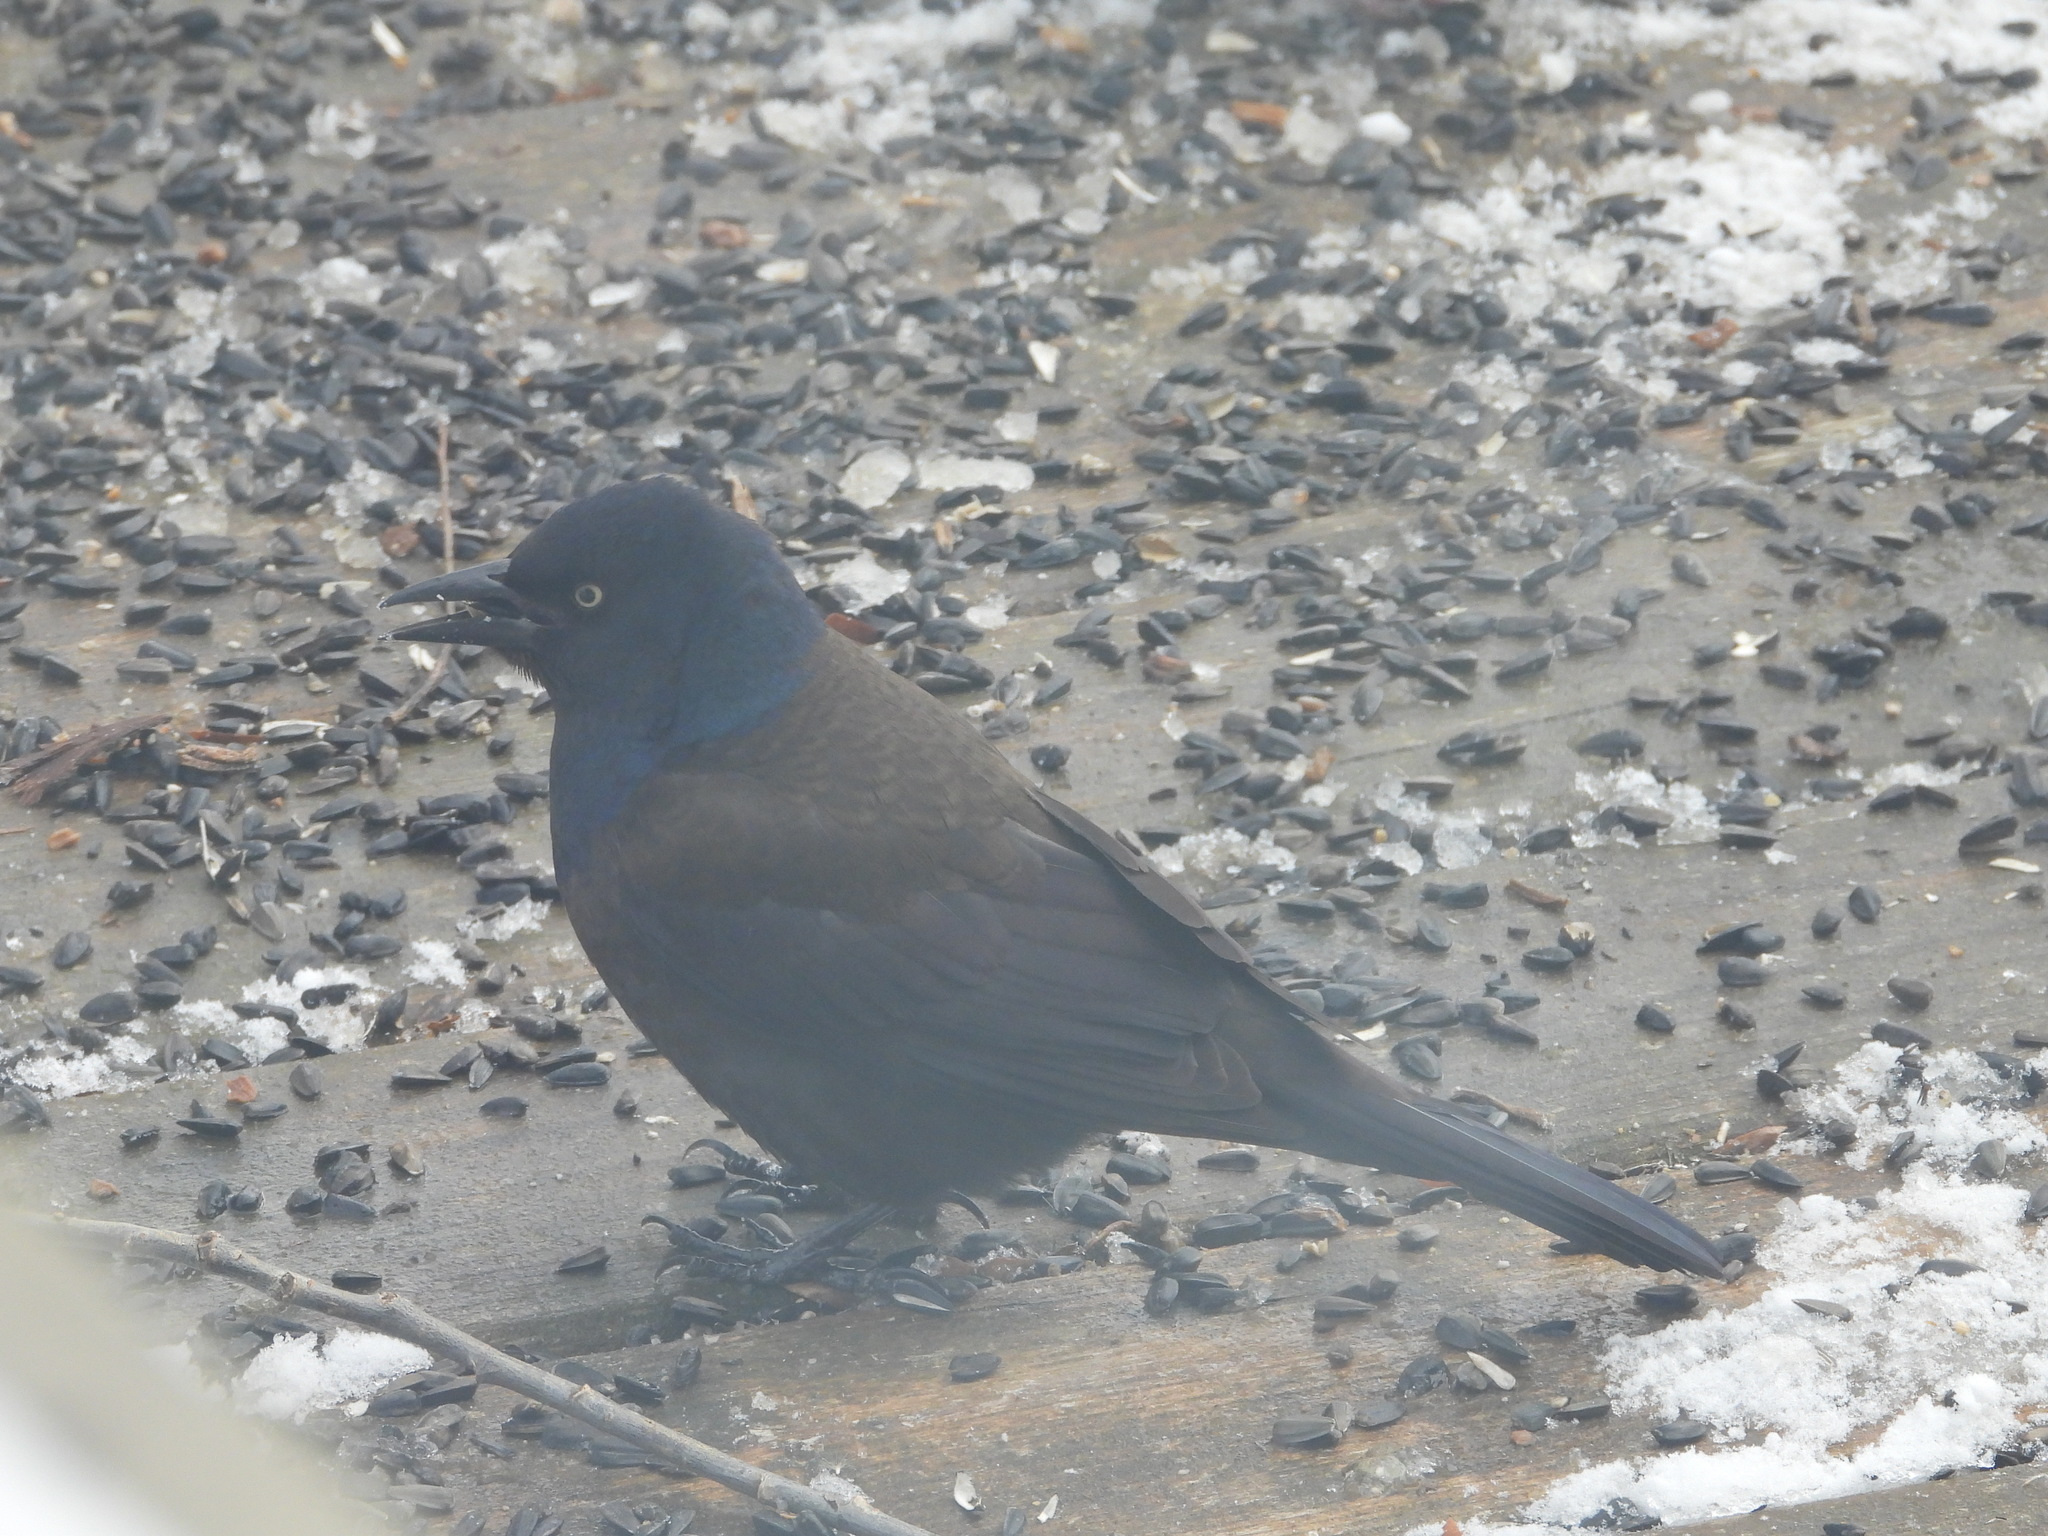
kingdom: Animalia
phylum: Chordata
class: Aves
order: Passeriformes
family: Icteridae
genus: Quiscalus
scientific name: Quiscalus quiscula
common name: Common grackle
